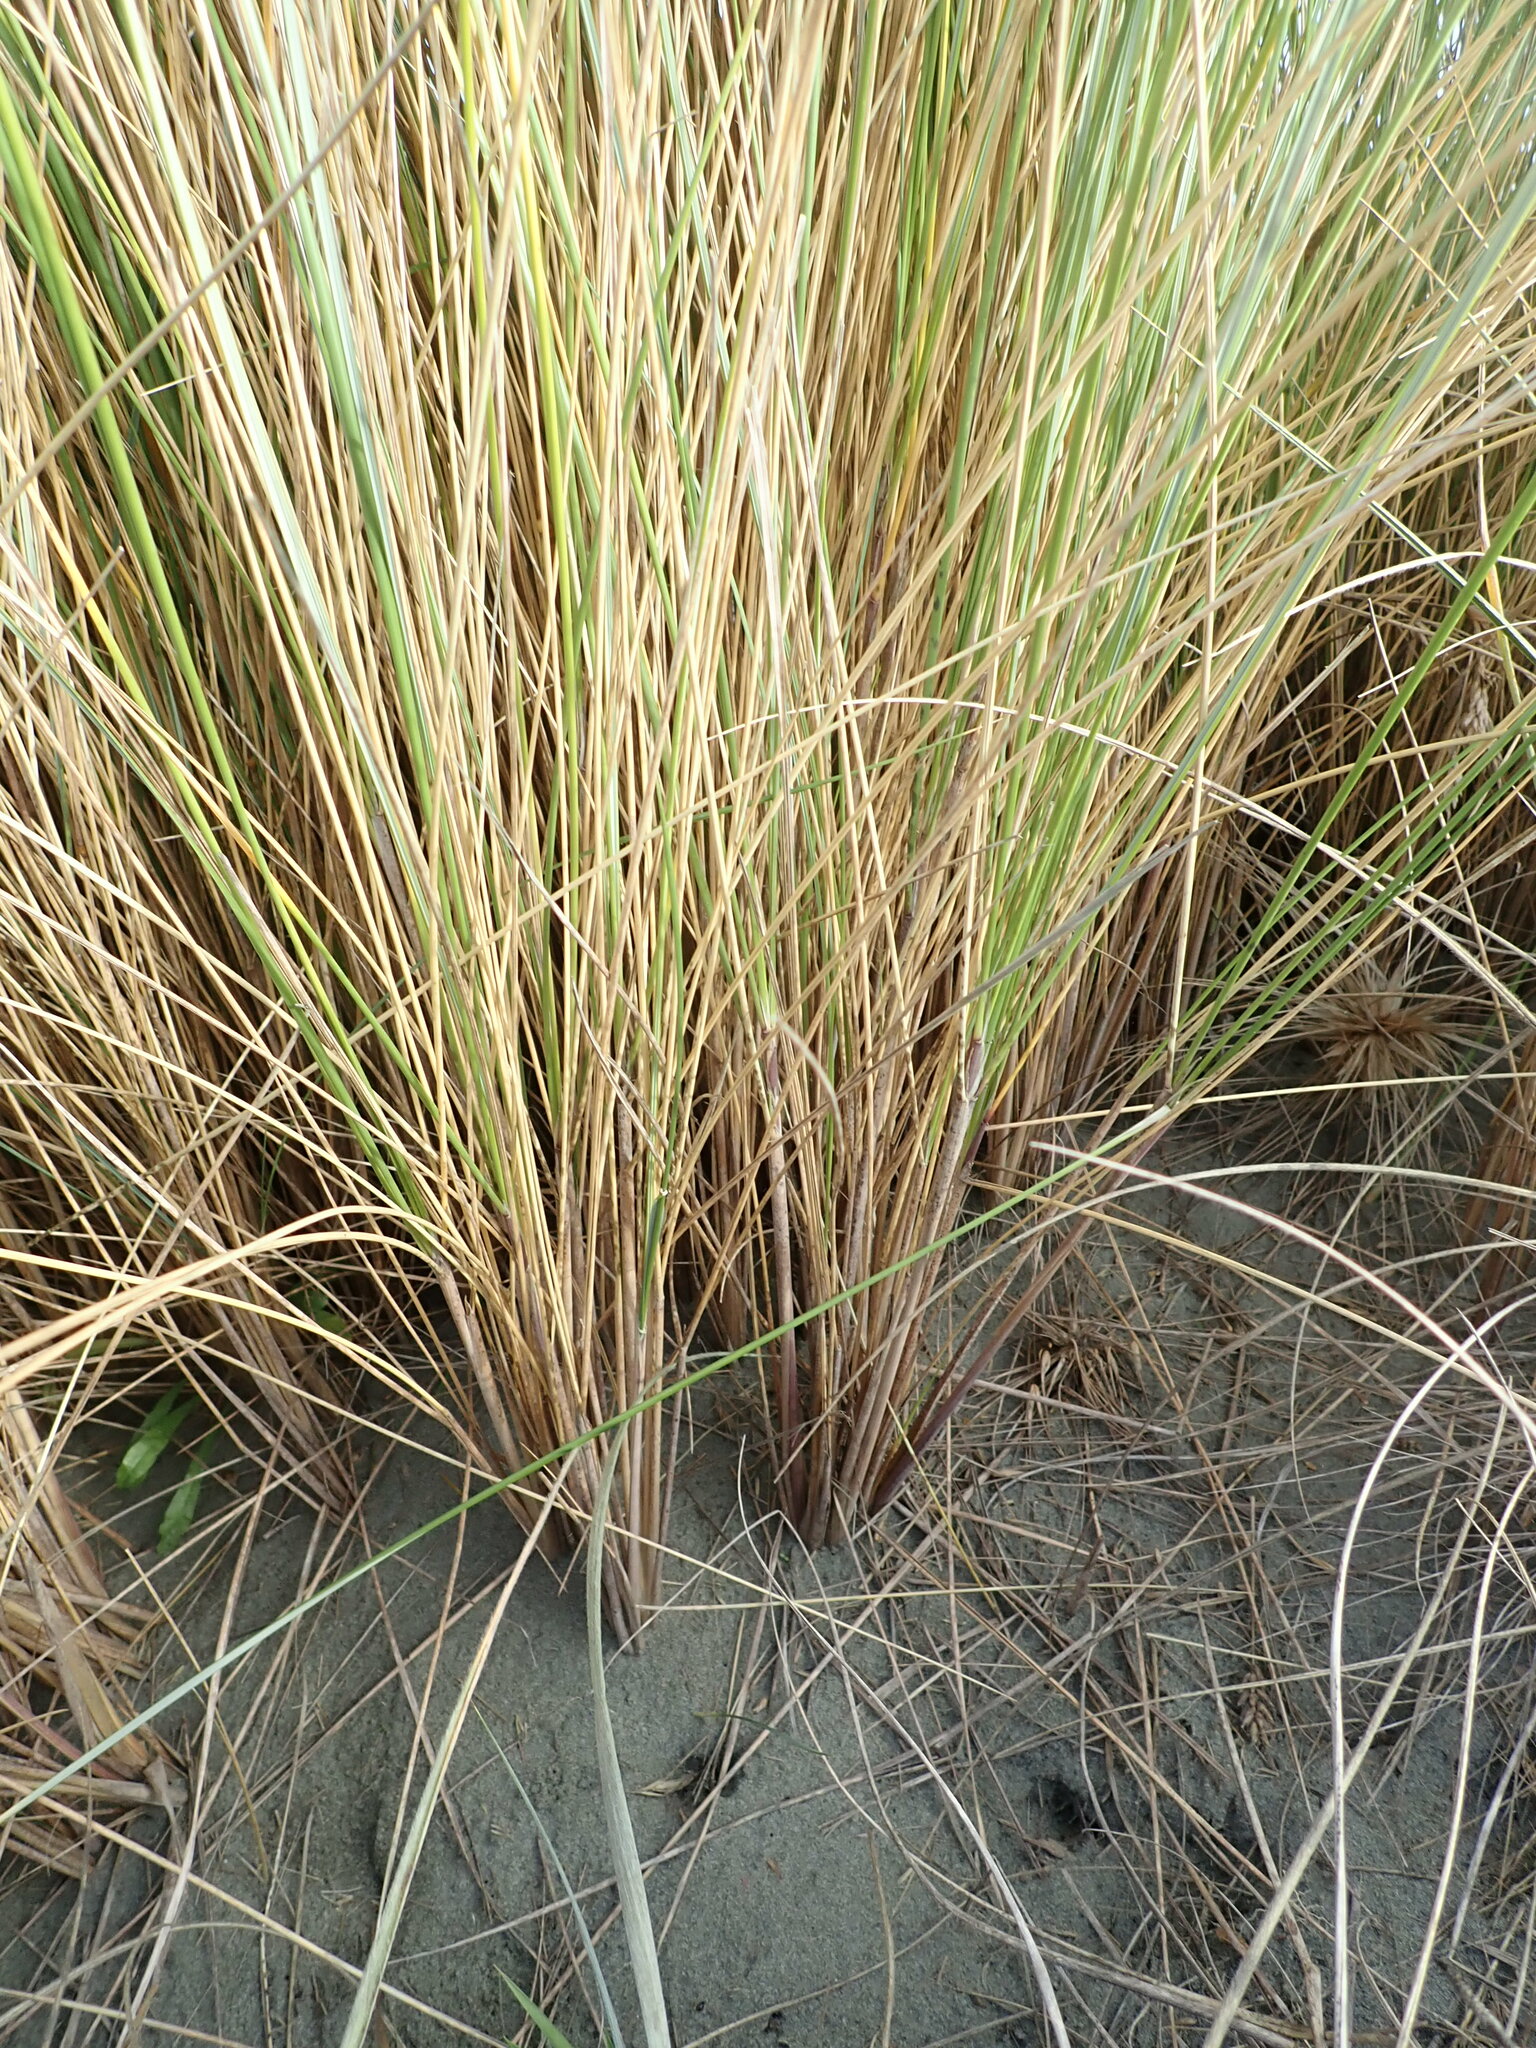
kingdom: Plantae
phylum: Tracheophyta
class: Liliopsida
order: Poales
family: Poaceae
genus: Calamagrostis
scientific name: Calamagrostis arenaria
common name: European beachgrass
